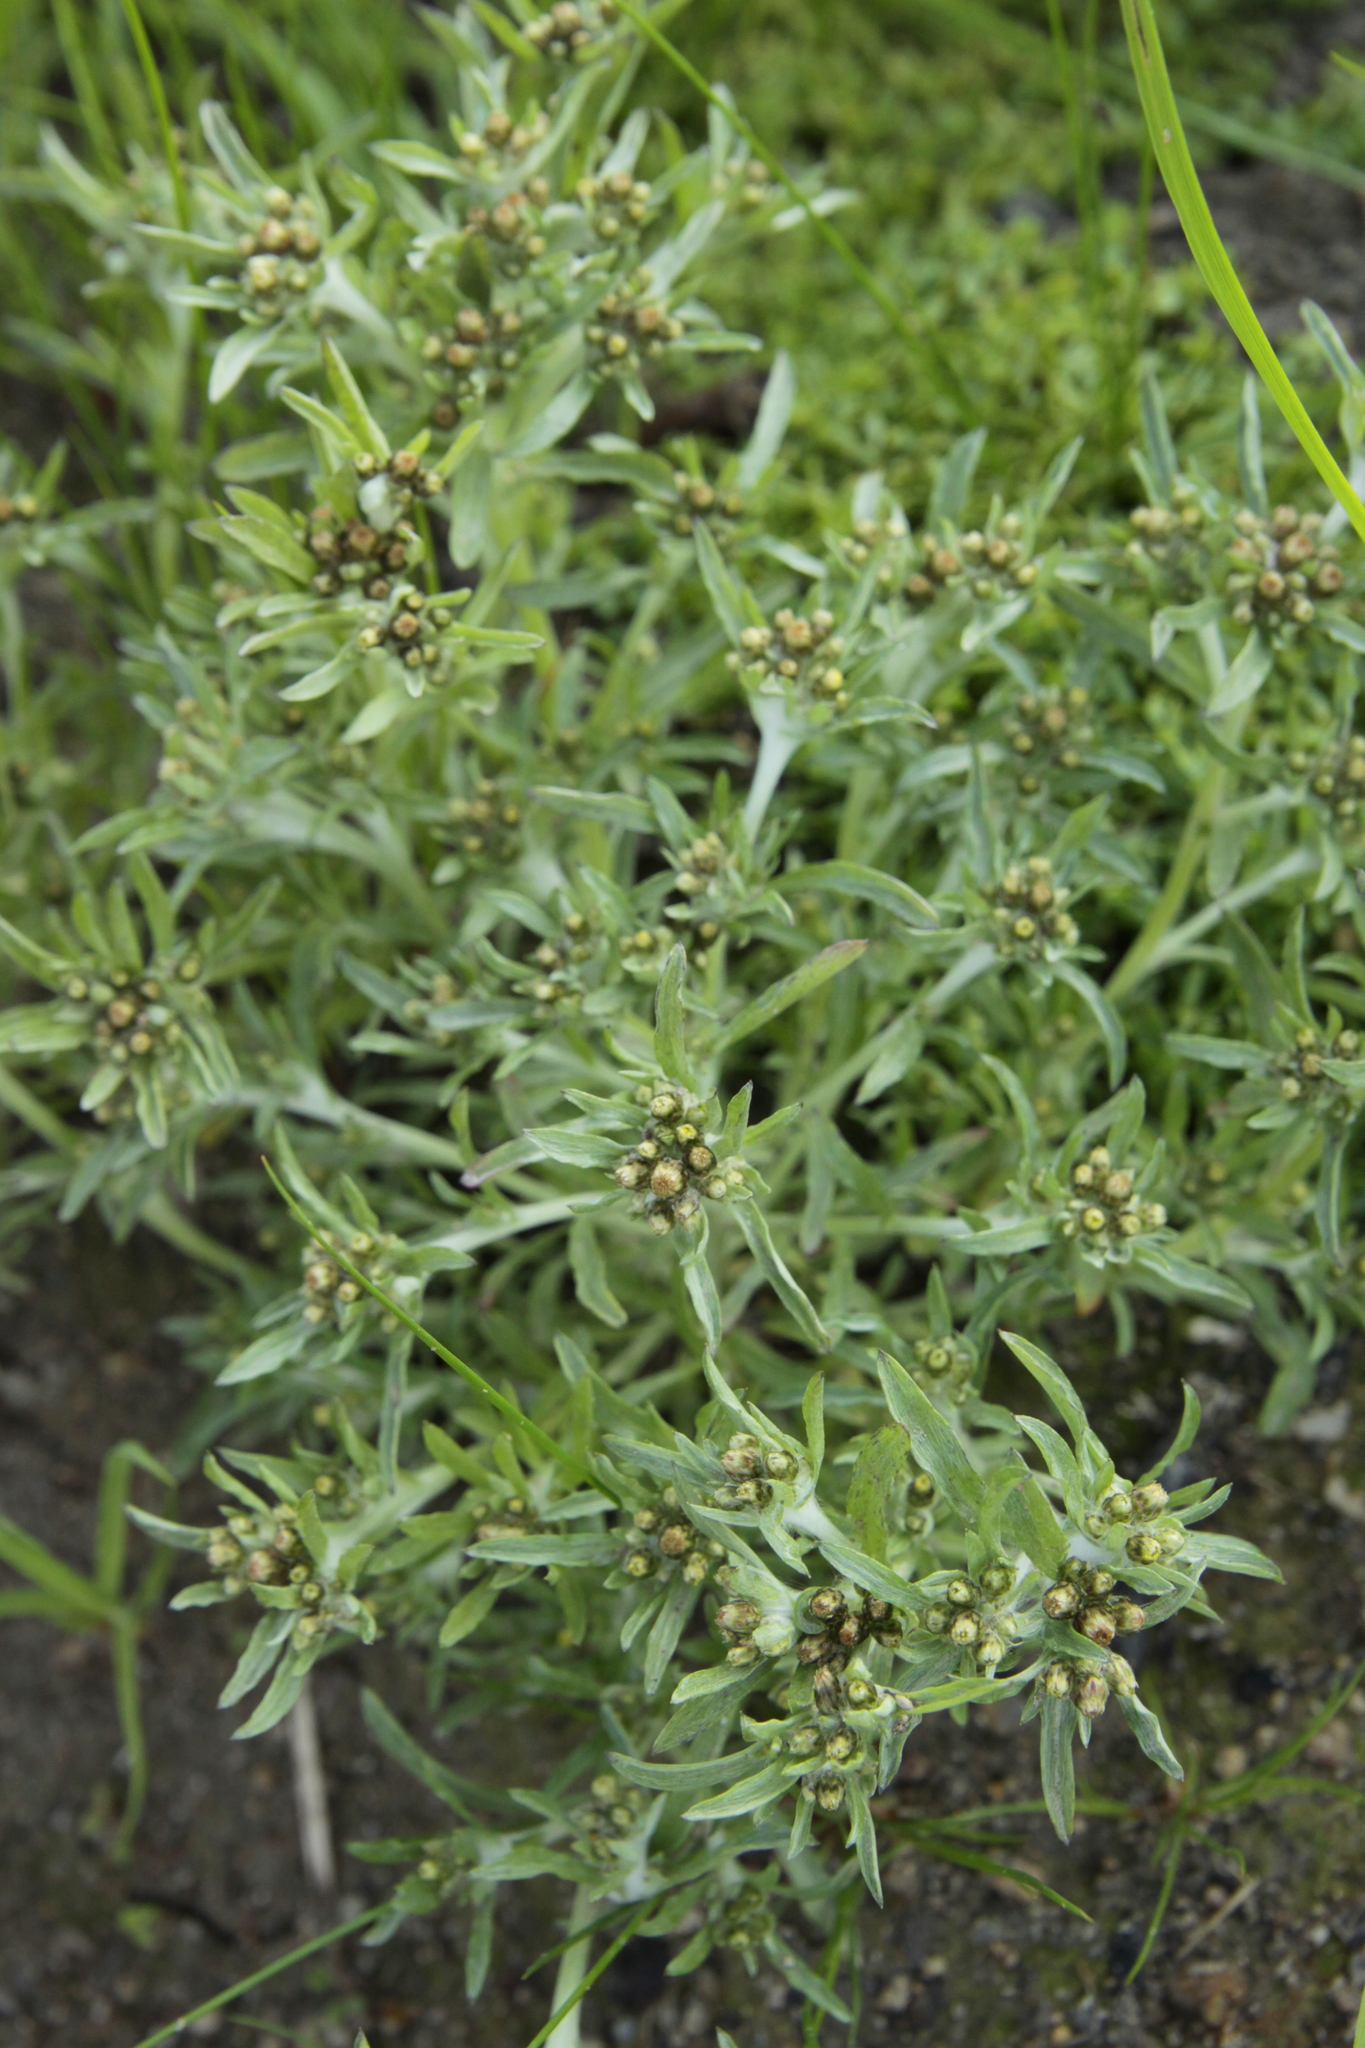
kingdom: Plantae
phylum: Tracheophyta
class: Magnoliopsida
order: Asterales
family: Asteraceae
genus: Gnaphalium
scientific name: Gnaphalium uliginosum
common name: Marsh cudweed
